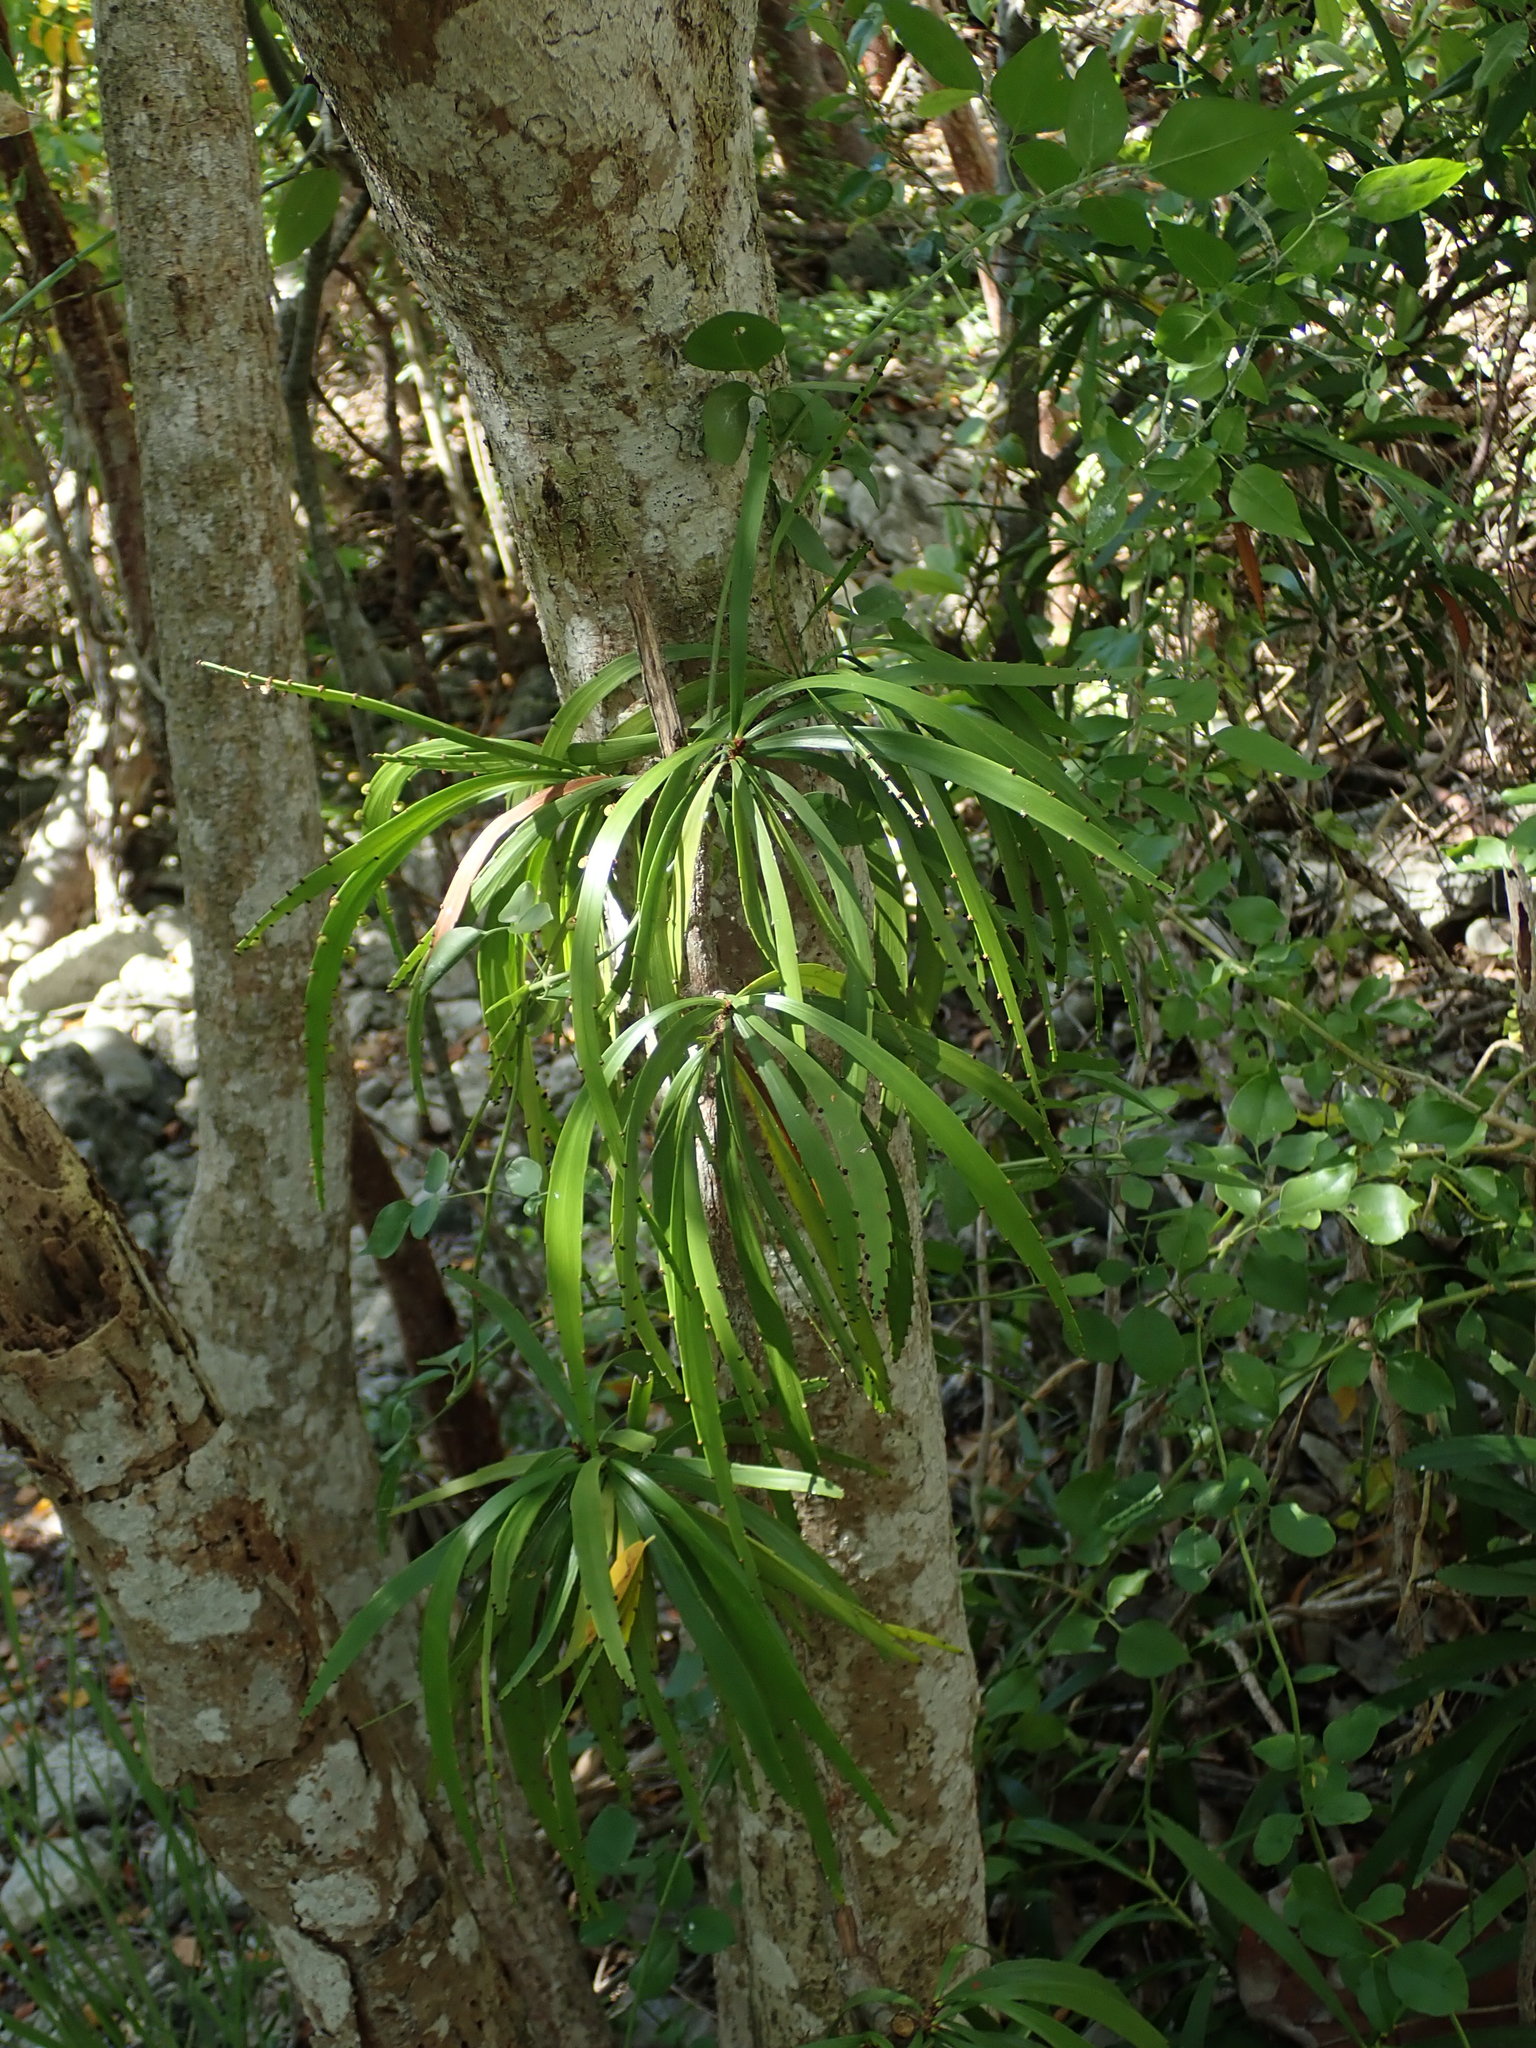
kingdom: Plantae
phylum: Tracheophyta
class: Magnoliopsida
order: Malpighiales
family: Phyllanthaceae
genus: Phyllanthus
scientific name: Phyllanthus epiphyllanthus
